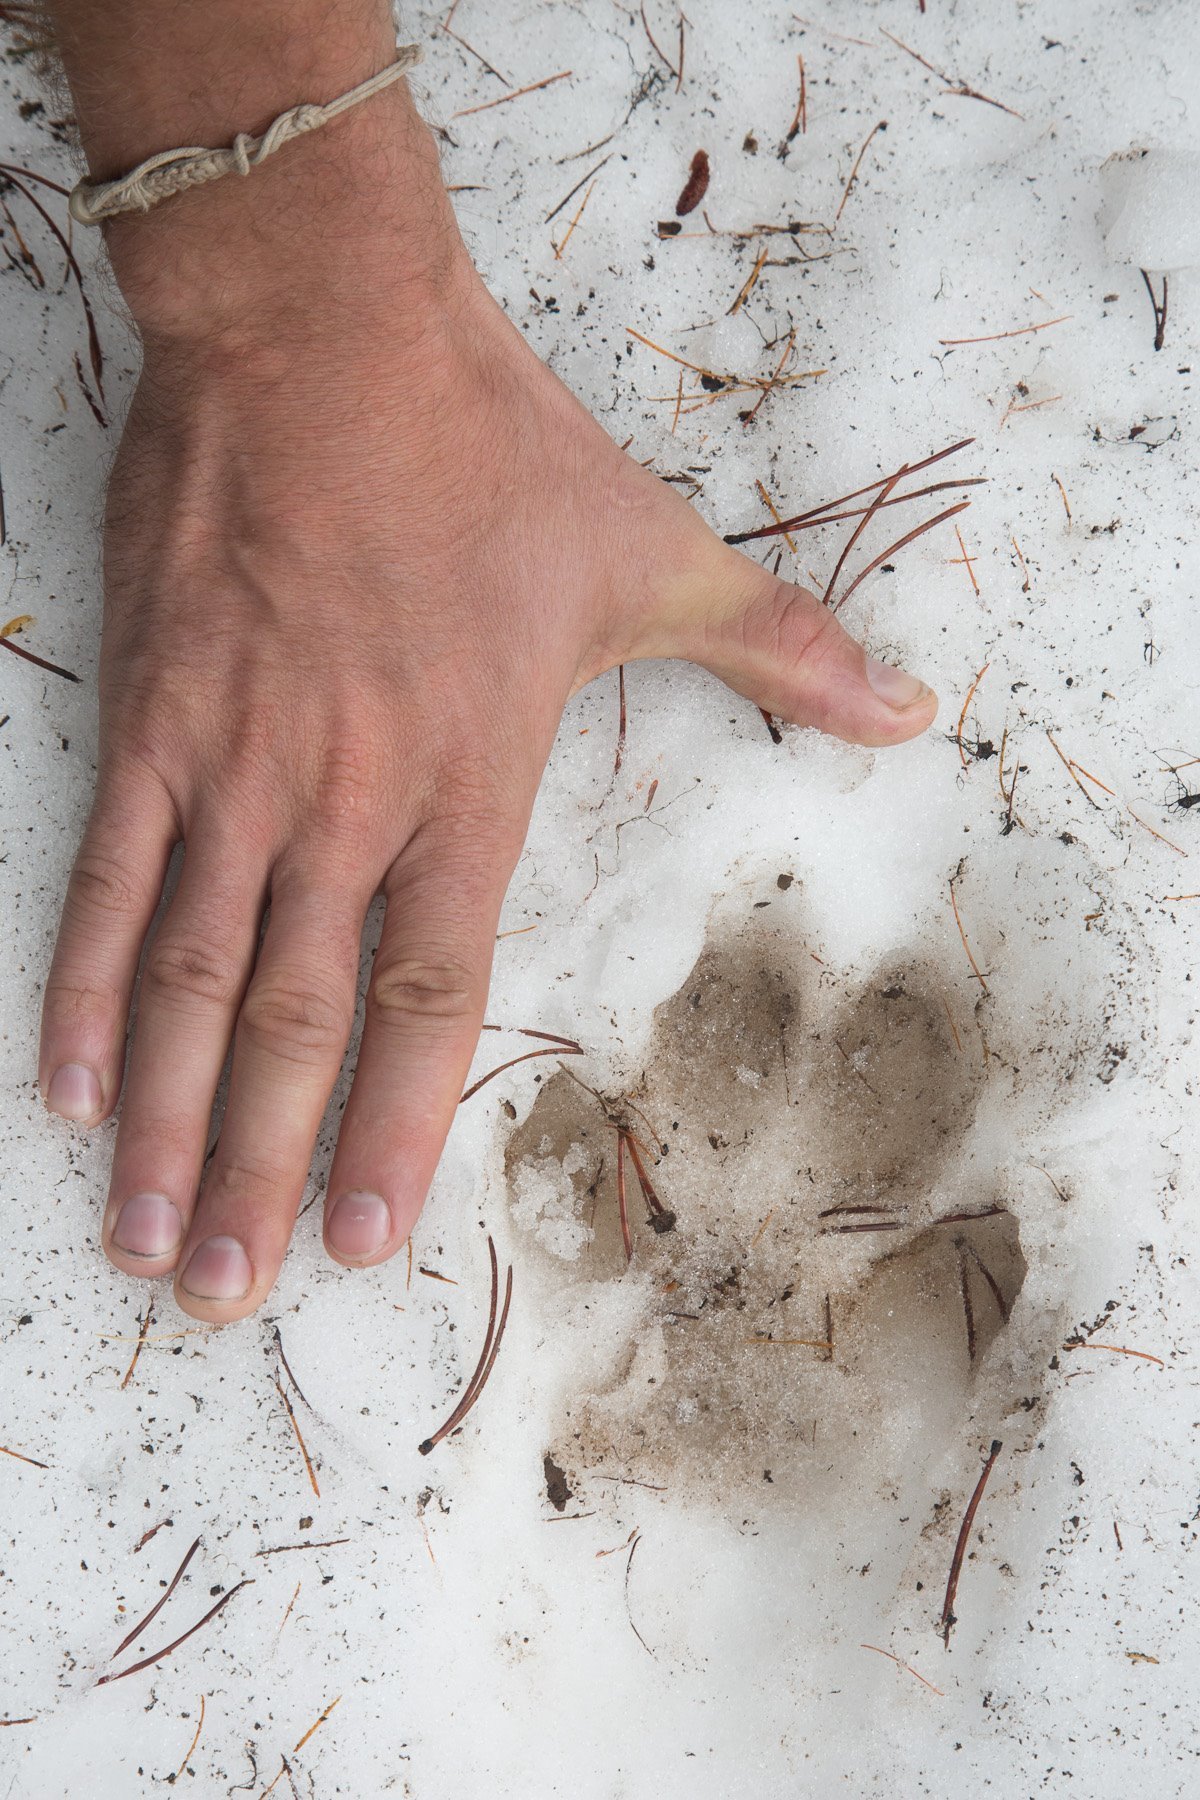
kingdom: Animalia
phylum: Chordata
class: Mammalia
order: Carnivora
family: Canidae
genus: Canis
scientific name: Canis lupus
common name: Gray wolf
